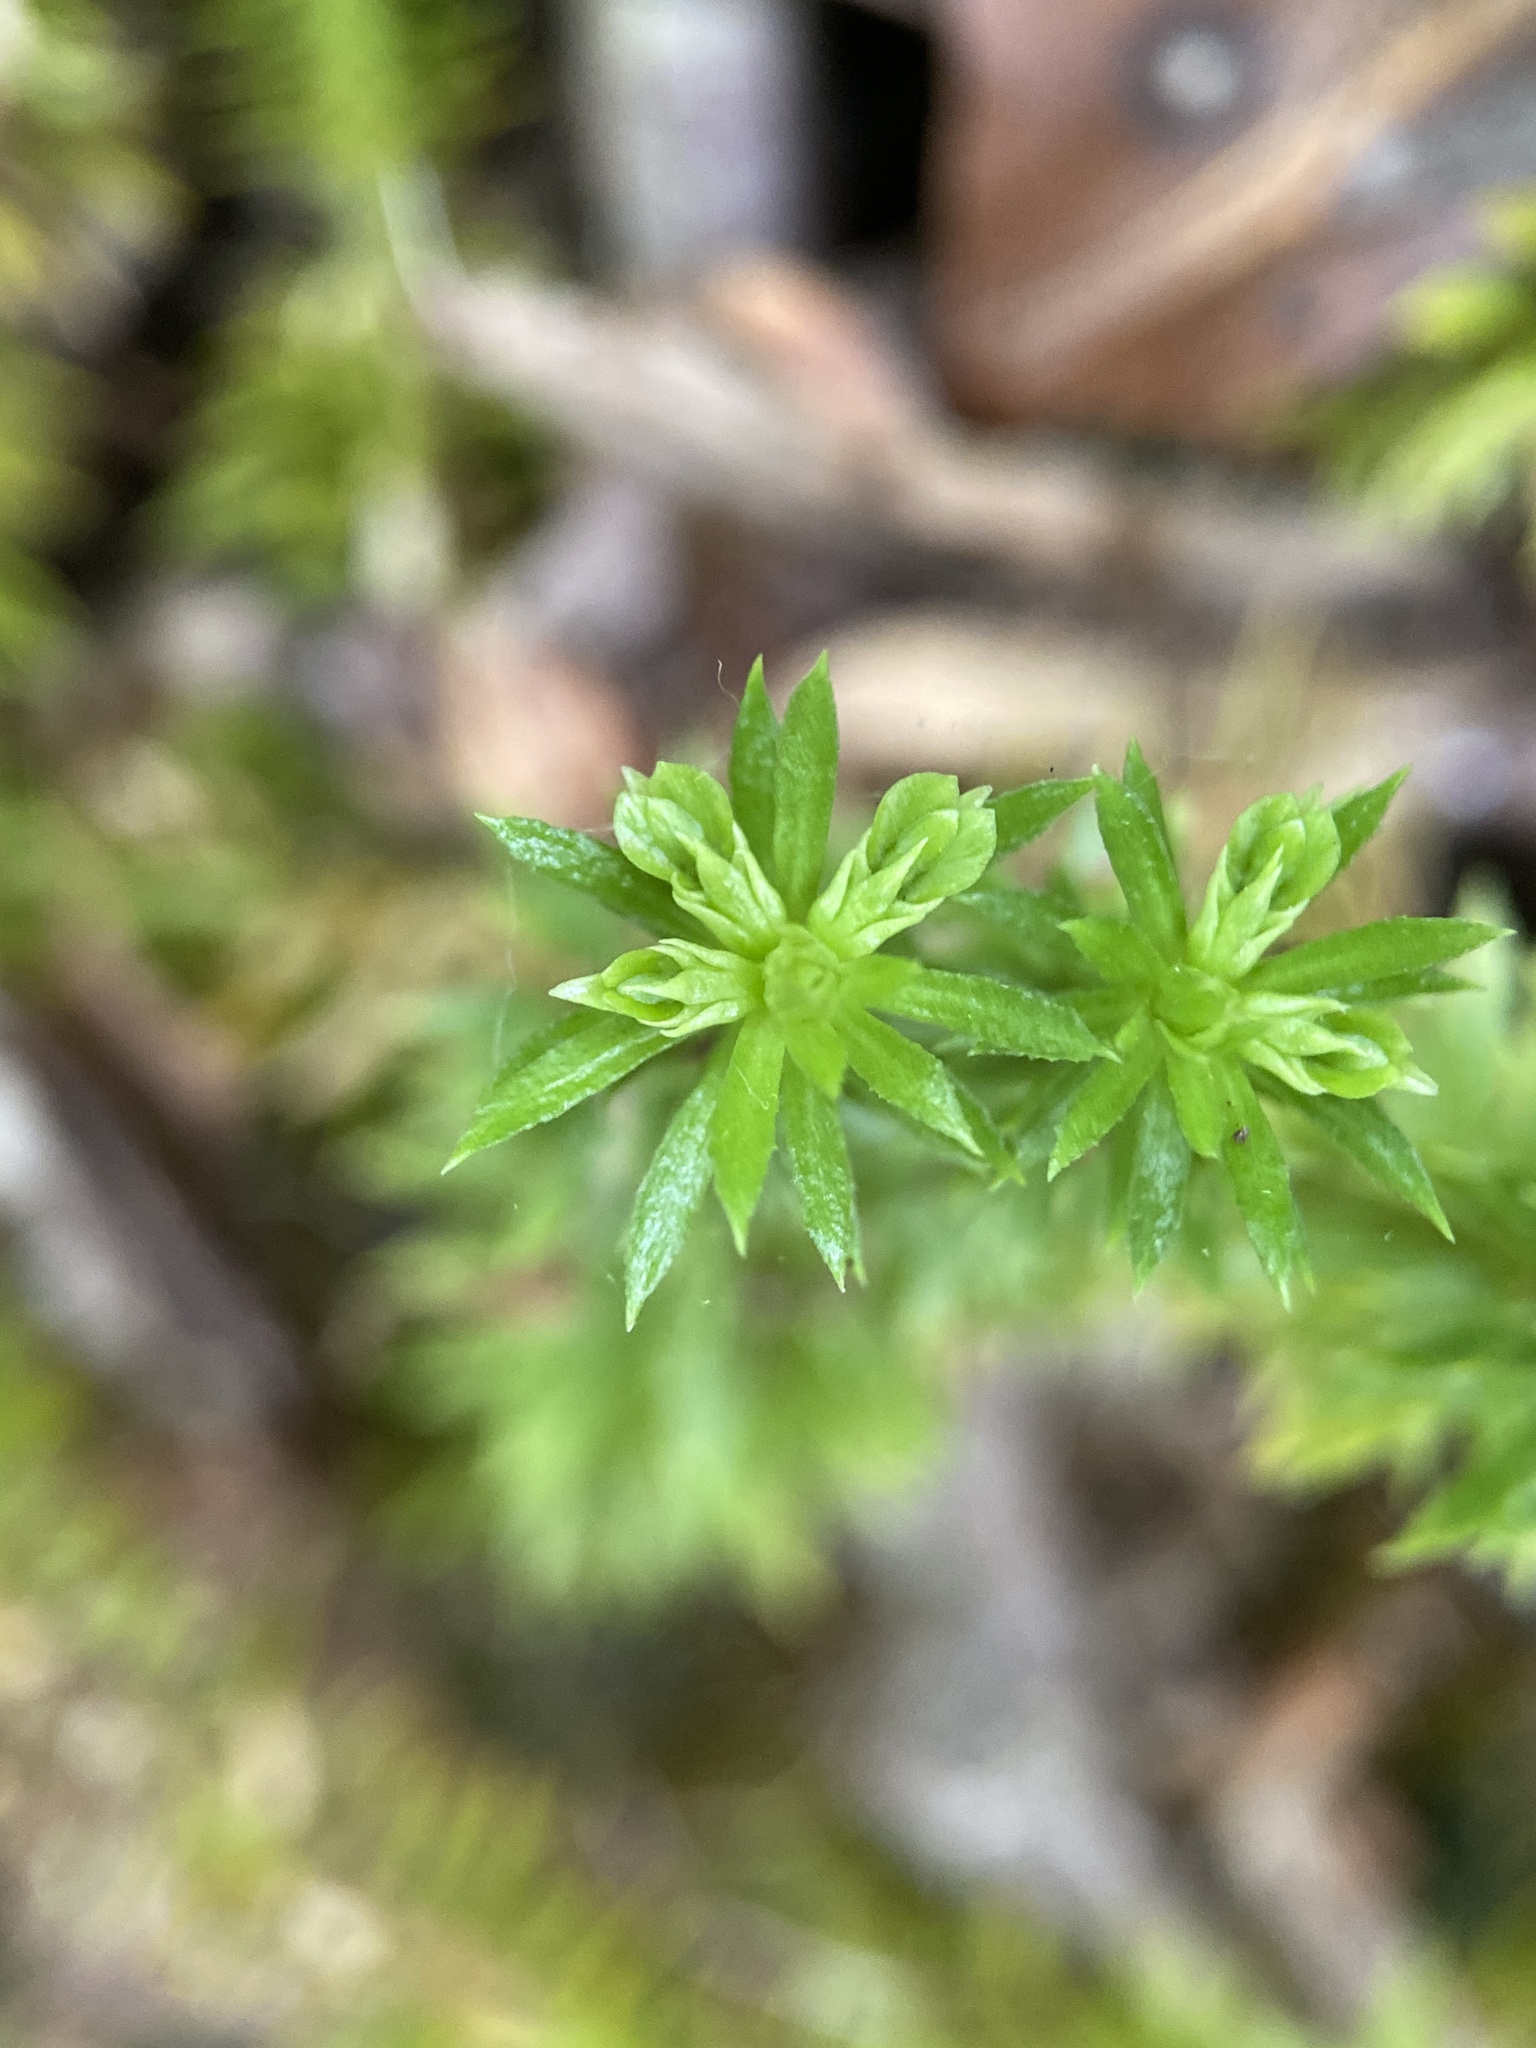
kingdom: Plantae
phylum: Tracheophyta
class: Lycopodiopsida
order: Lycopodiales
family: Lycopodiaceae
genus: Huperzia
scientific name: Huperzia lucidula
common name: Shining clubmoss
